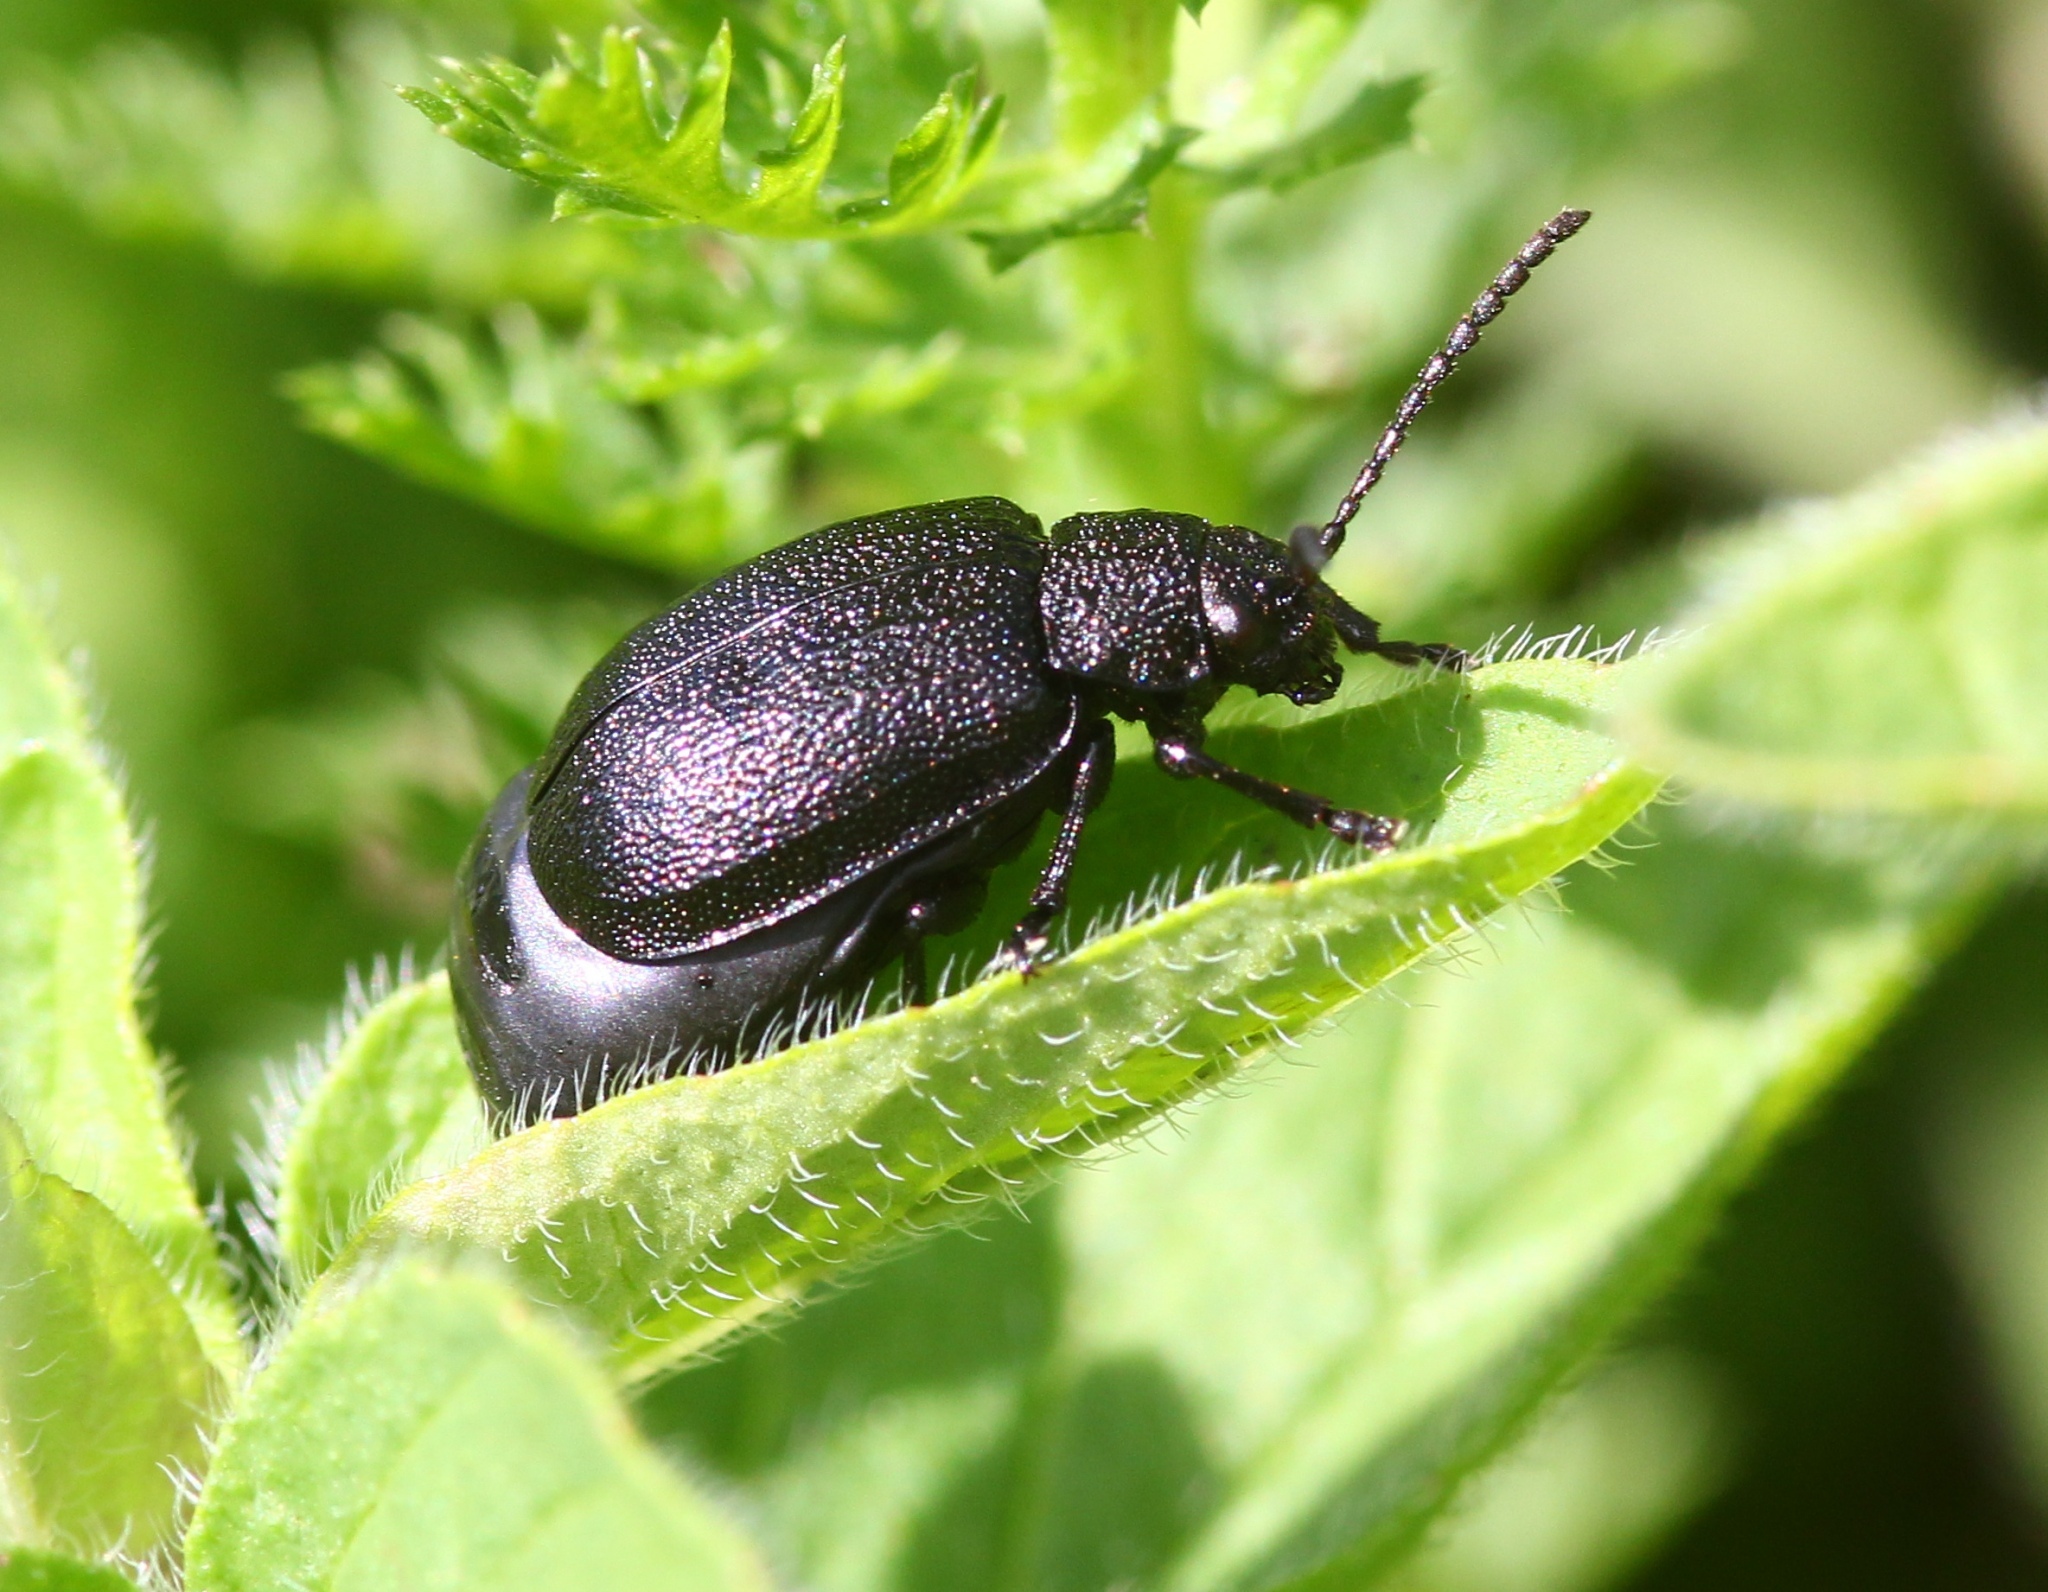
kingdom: Animalia
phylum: Arthropoda
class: Insecta
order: Coleoptera
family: Chrysomelidae
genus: Galeruca
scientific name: Galeruca tanaceti
